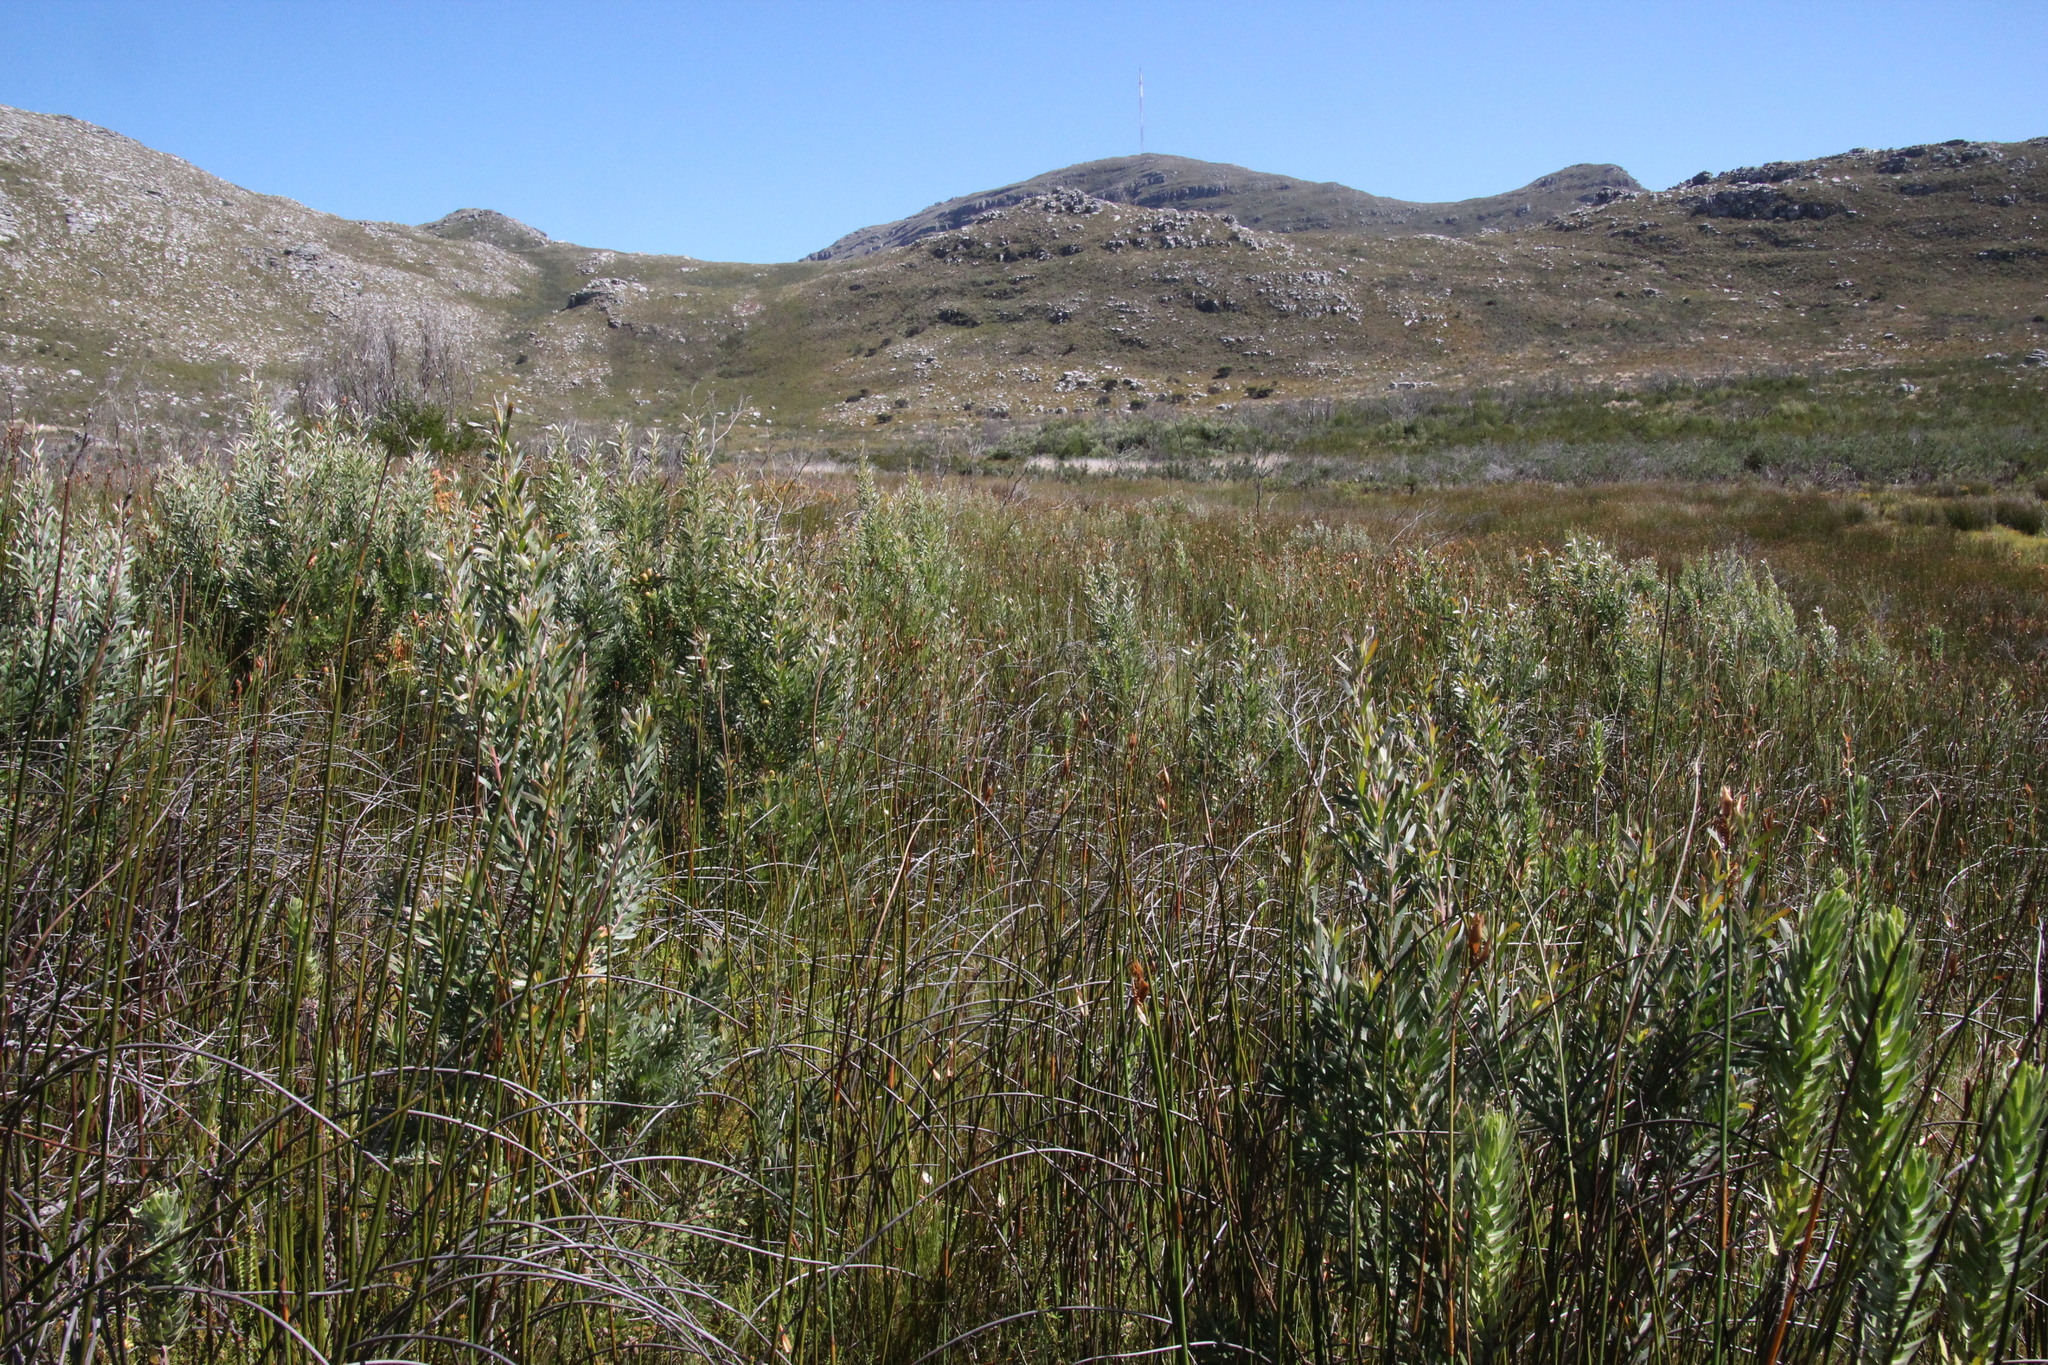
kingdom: Plantae
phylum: Tracheophyta
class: Magnoliopsida
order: Proteales
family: Proteaceae
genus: Leucadendron
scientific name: Leucadendron macowanii
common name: Acacia-leaf conebush
